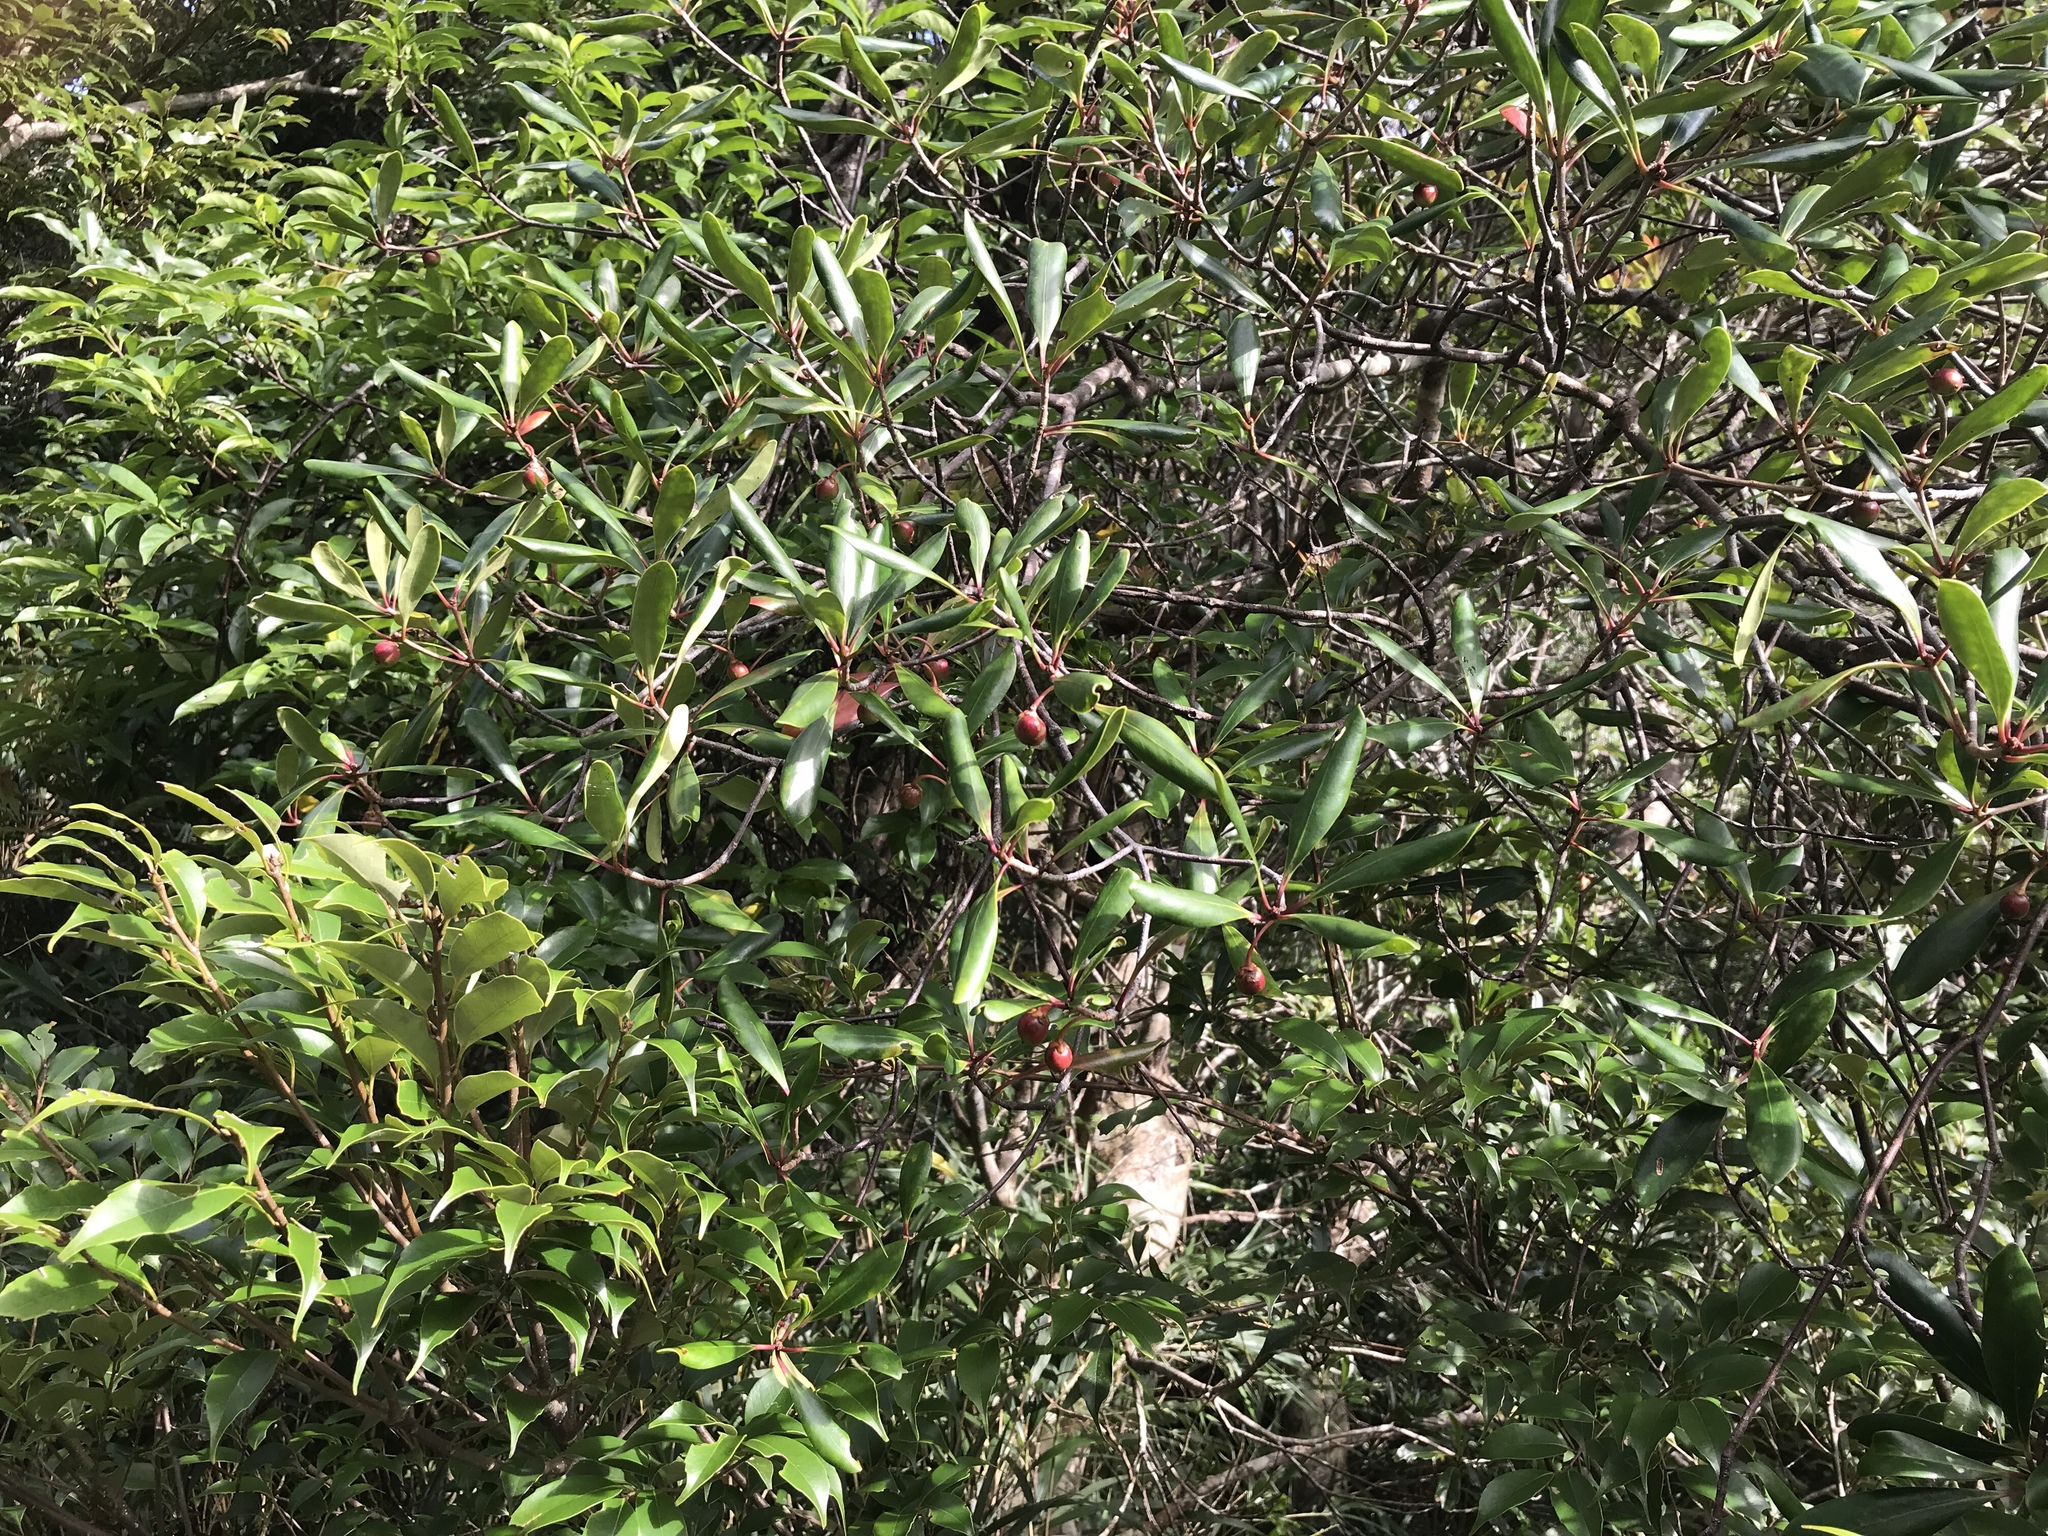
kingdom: Plantae
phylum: Tracheophyta
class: Magnoliopsida
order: Ericales
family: Pentaphylacaceae
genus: Ternstroemia
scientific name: Ternstroemia gymnanthera
